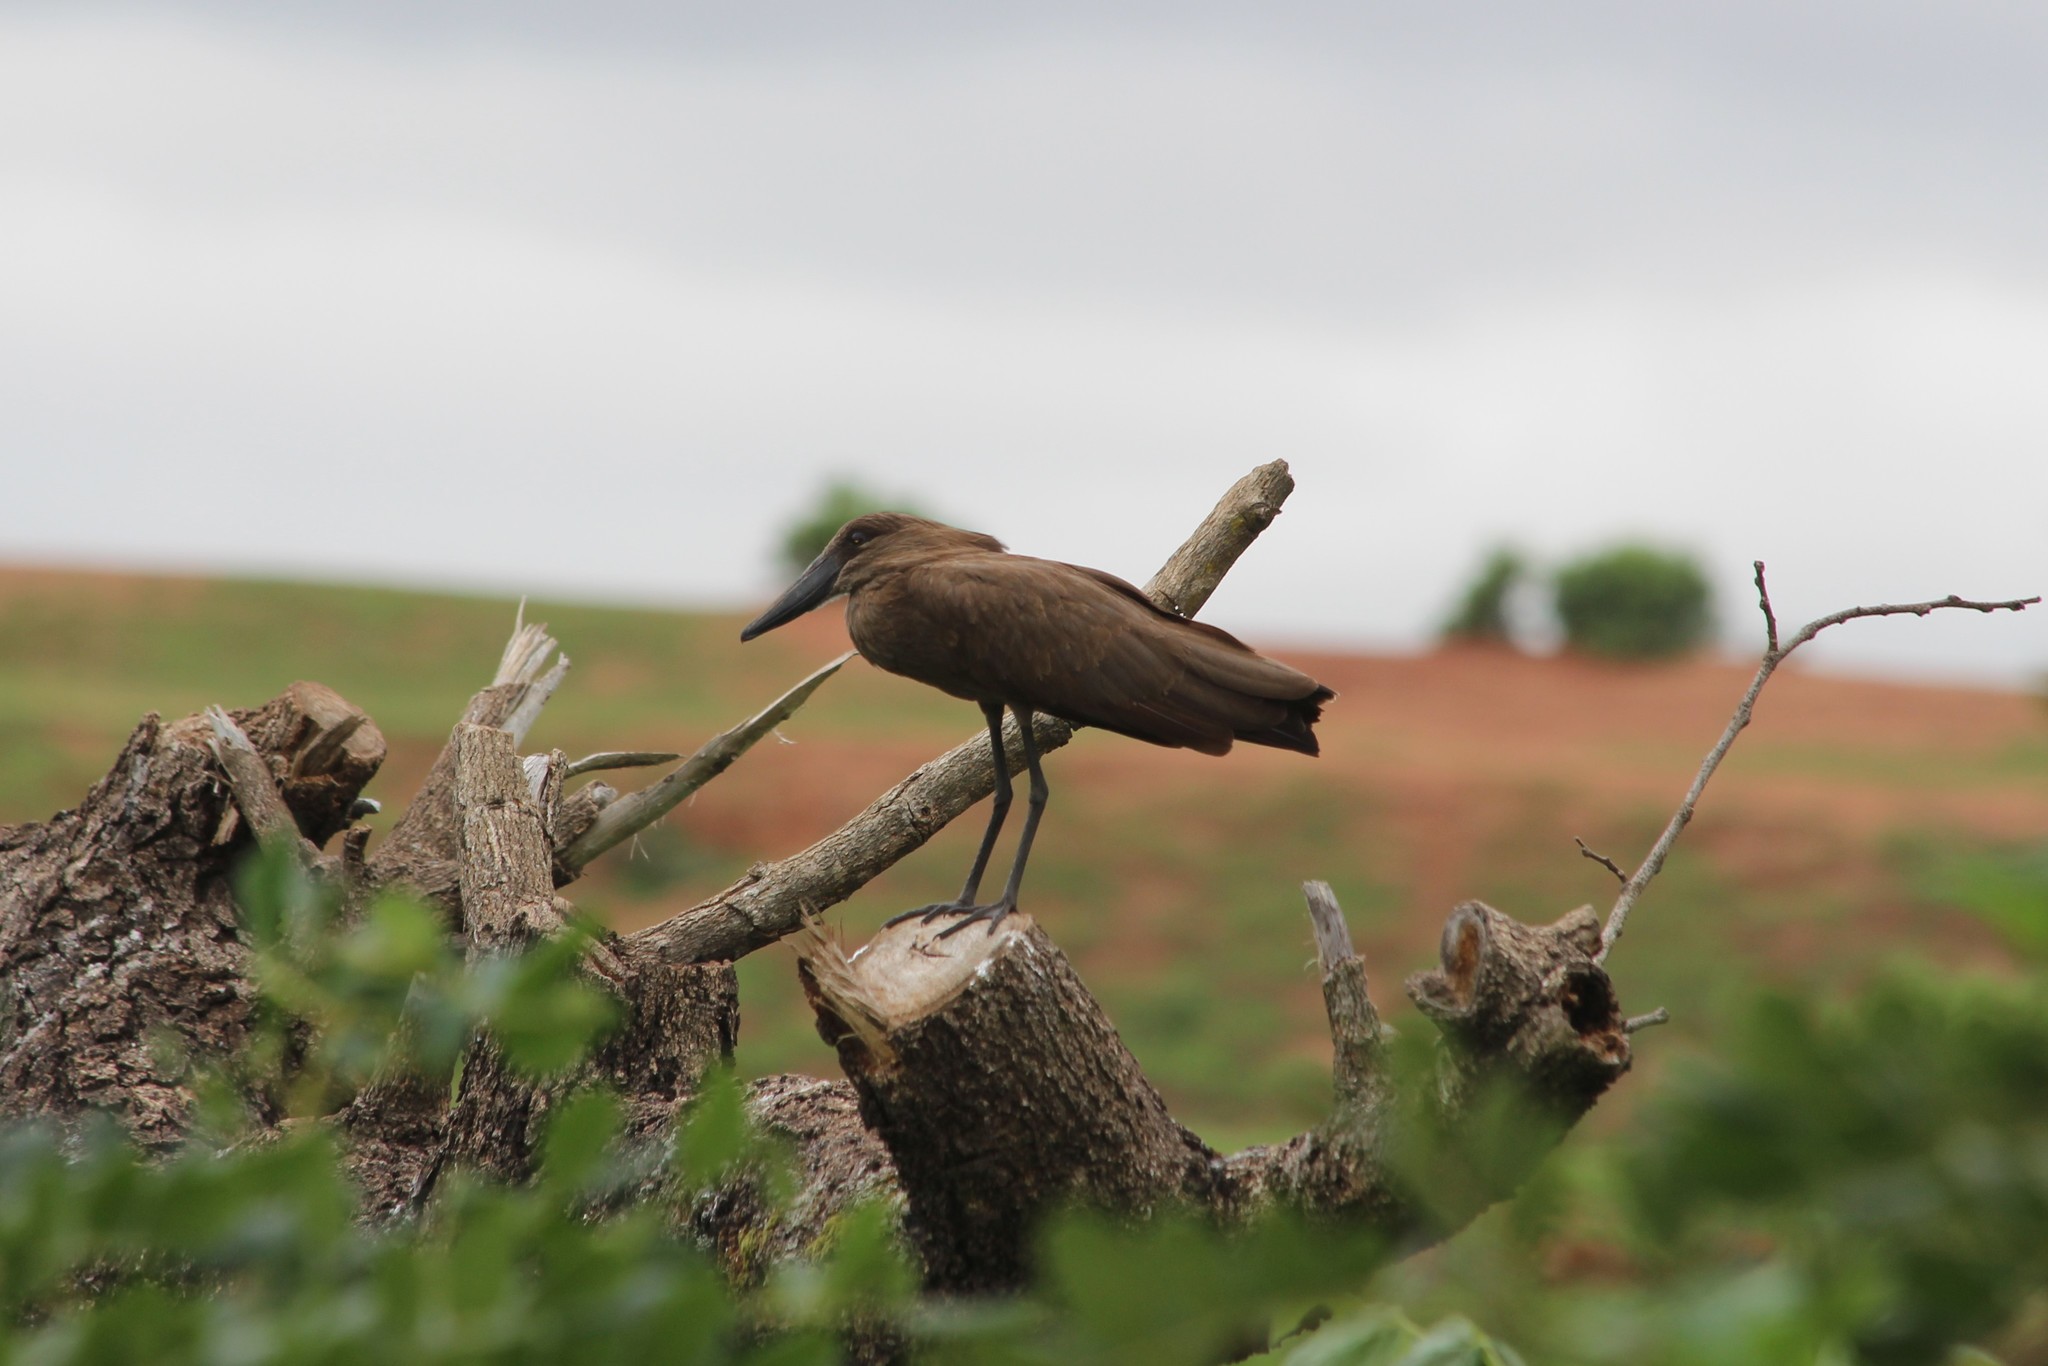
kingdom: Animalia
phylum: Chordata
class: Aves
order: Pelecaniformes
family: Scopidae
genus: Scopus
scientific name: Scopus umbretta
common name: Hamerkop
